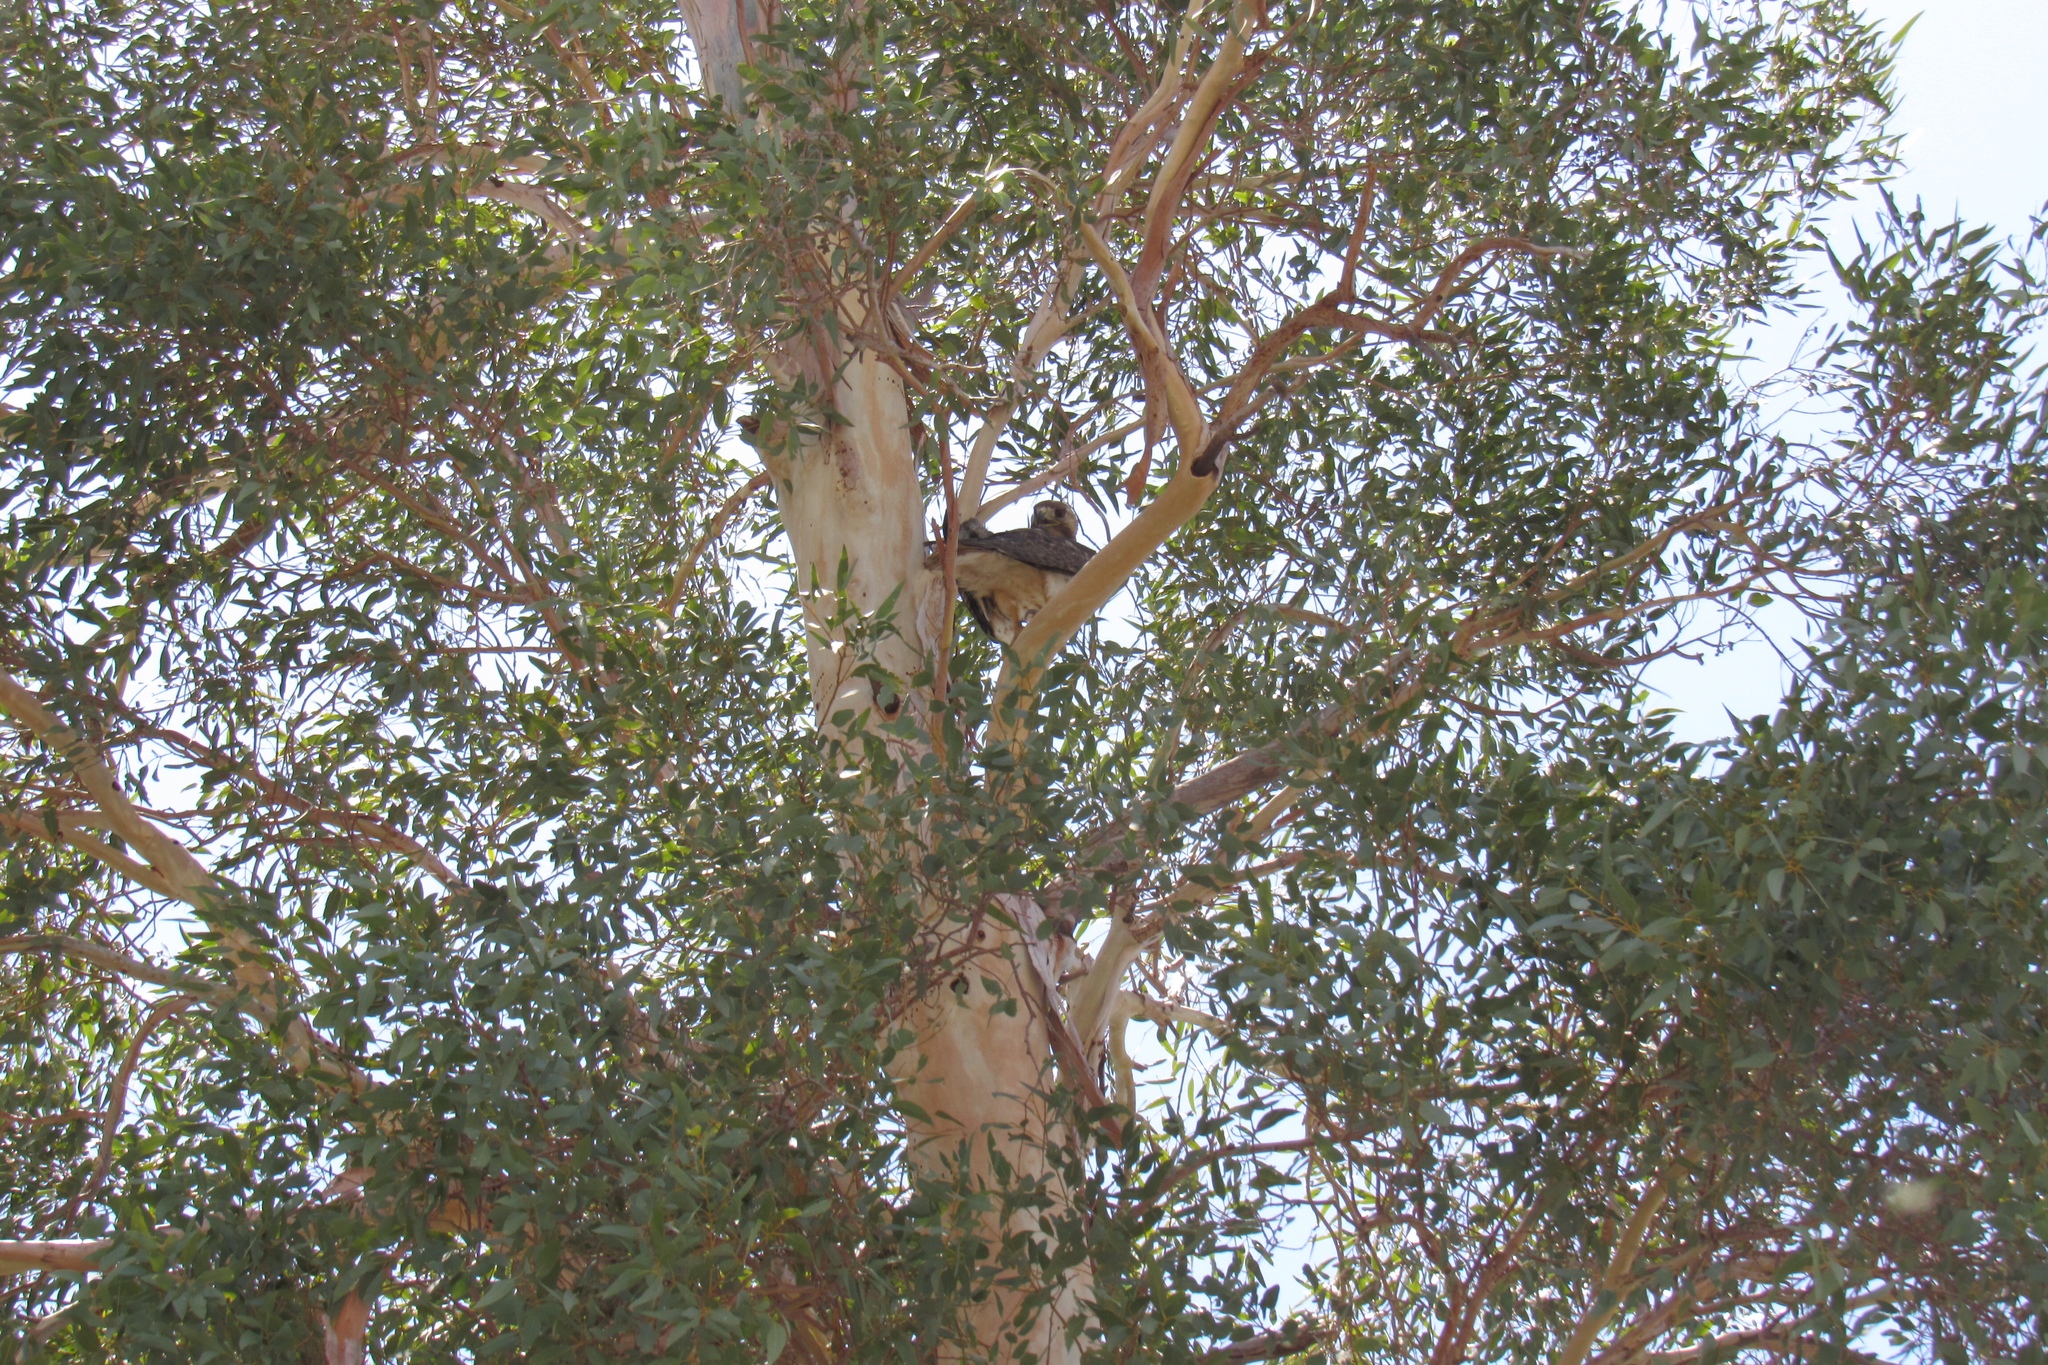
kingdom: Animalia
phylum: Chordata
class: Aves
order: Accipitriformes
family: Accipitridae
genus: Buteo
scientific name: Buteo jamaicensis
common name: Red-tailed hawk
